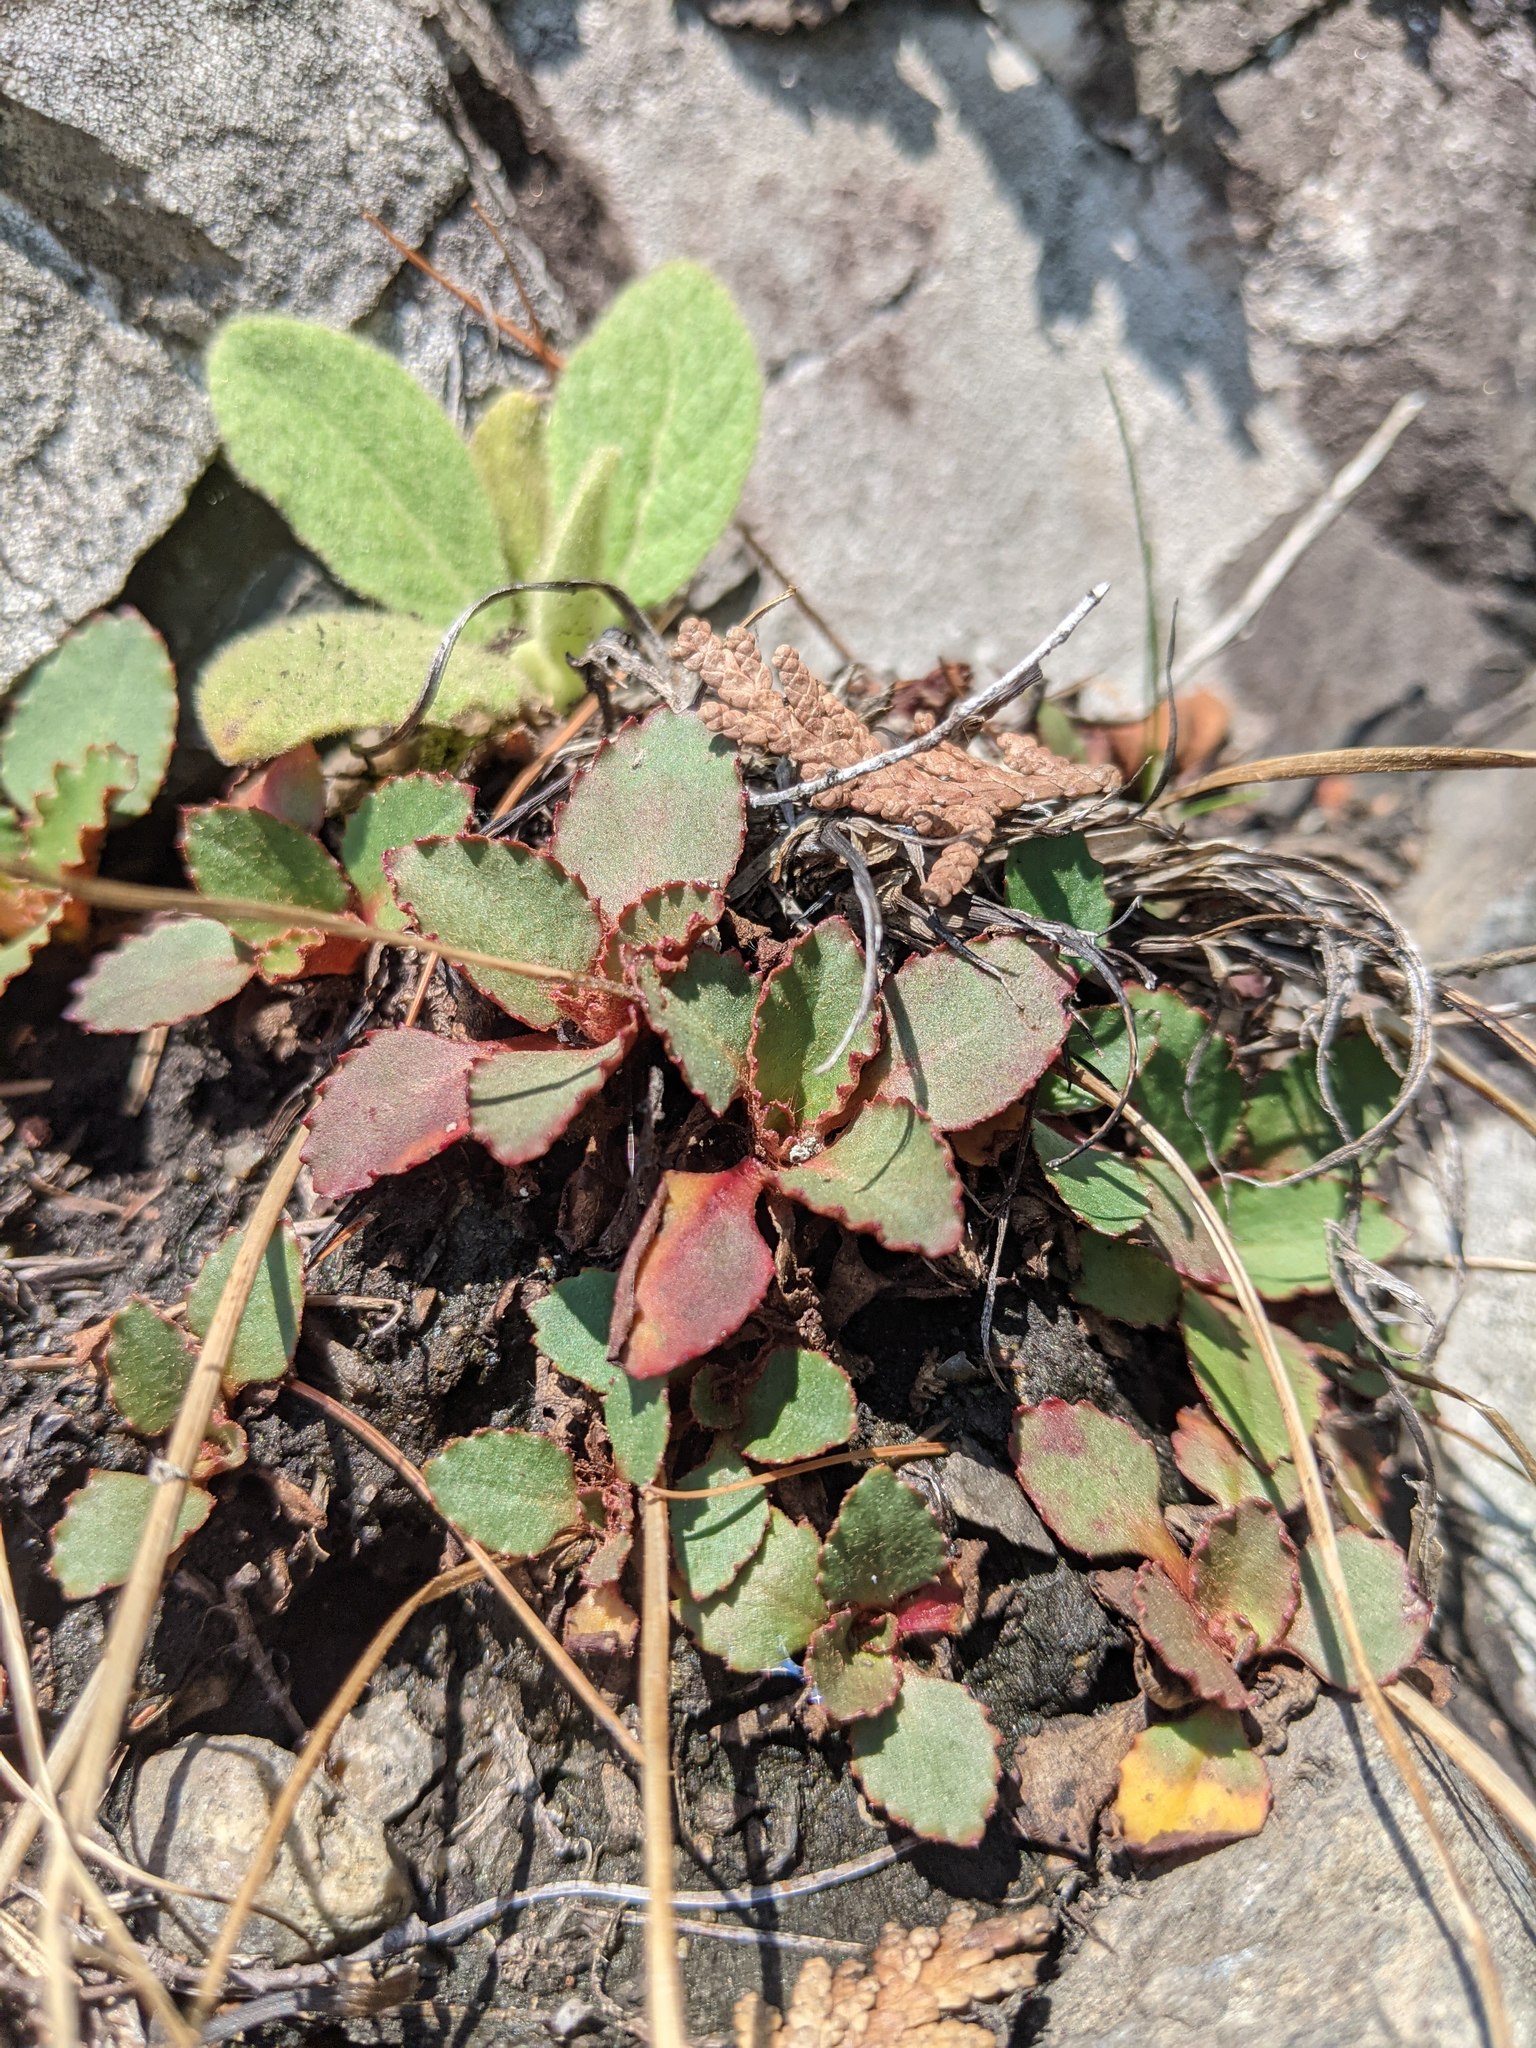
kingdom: Plantae
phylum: Tracheophyta
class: Magnoliopsida
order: Saxifragales
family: Saxifragaceae
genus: Micranthes
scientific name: Micranthes virginiensis
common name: Early saxifrage
